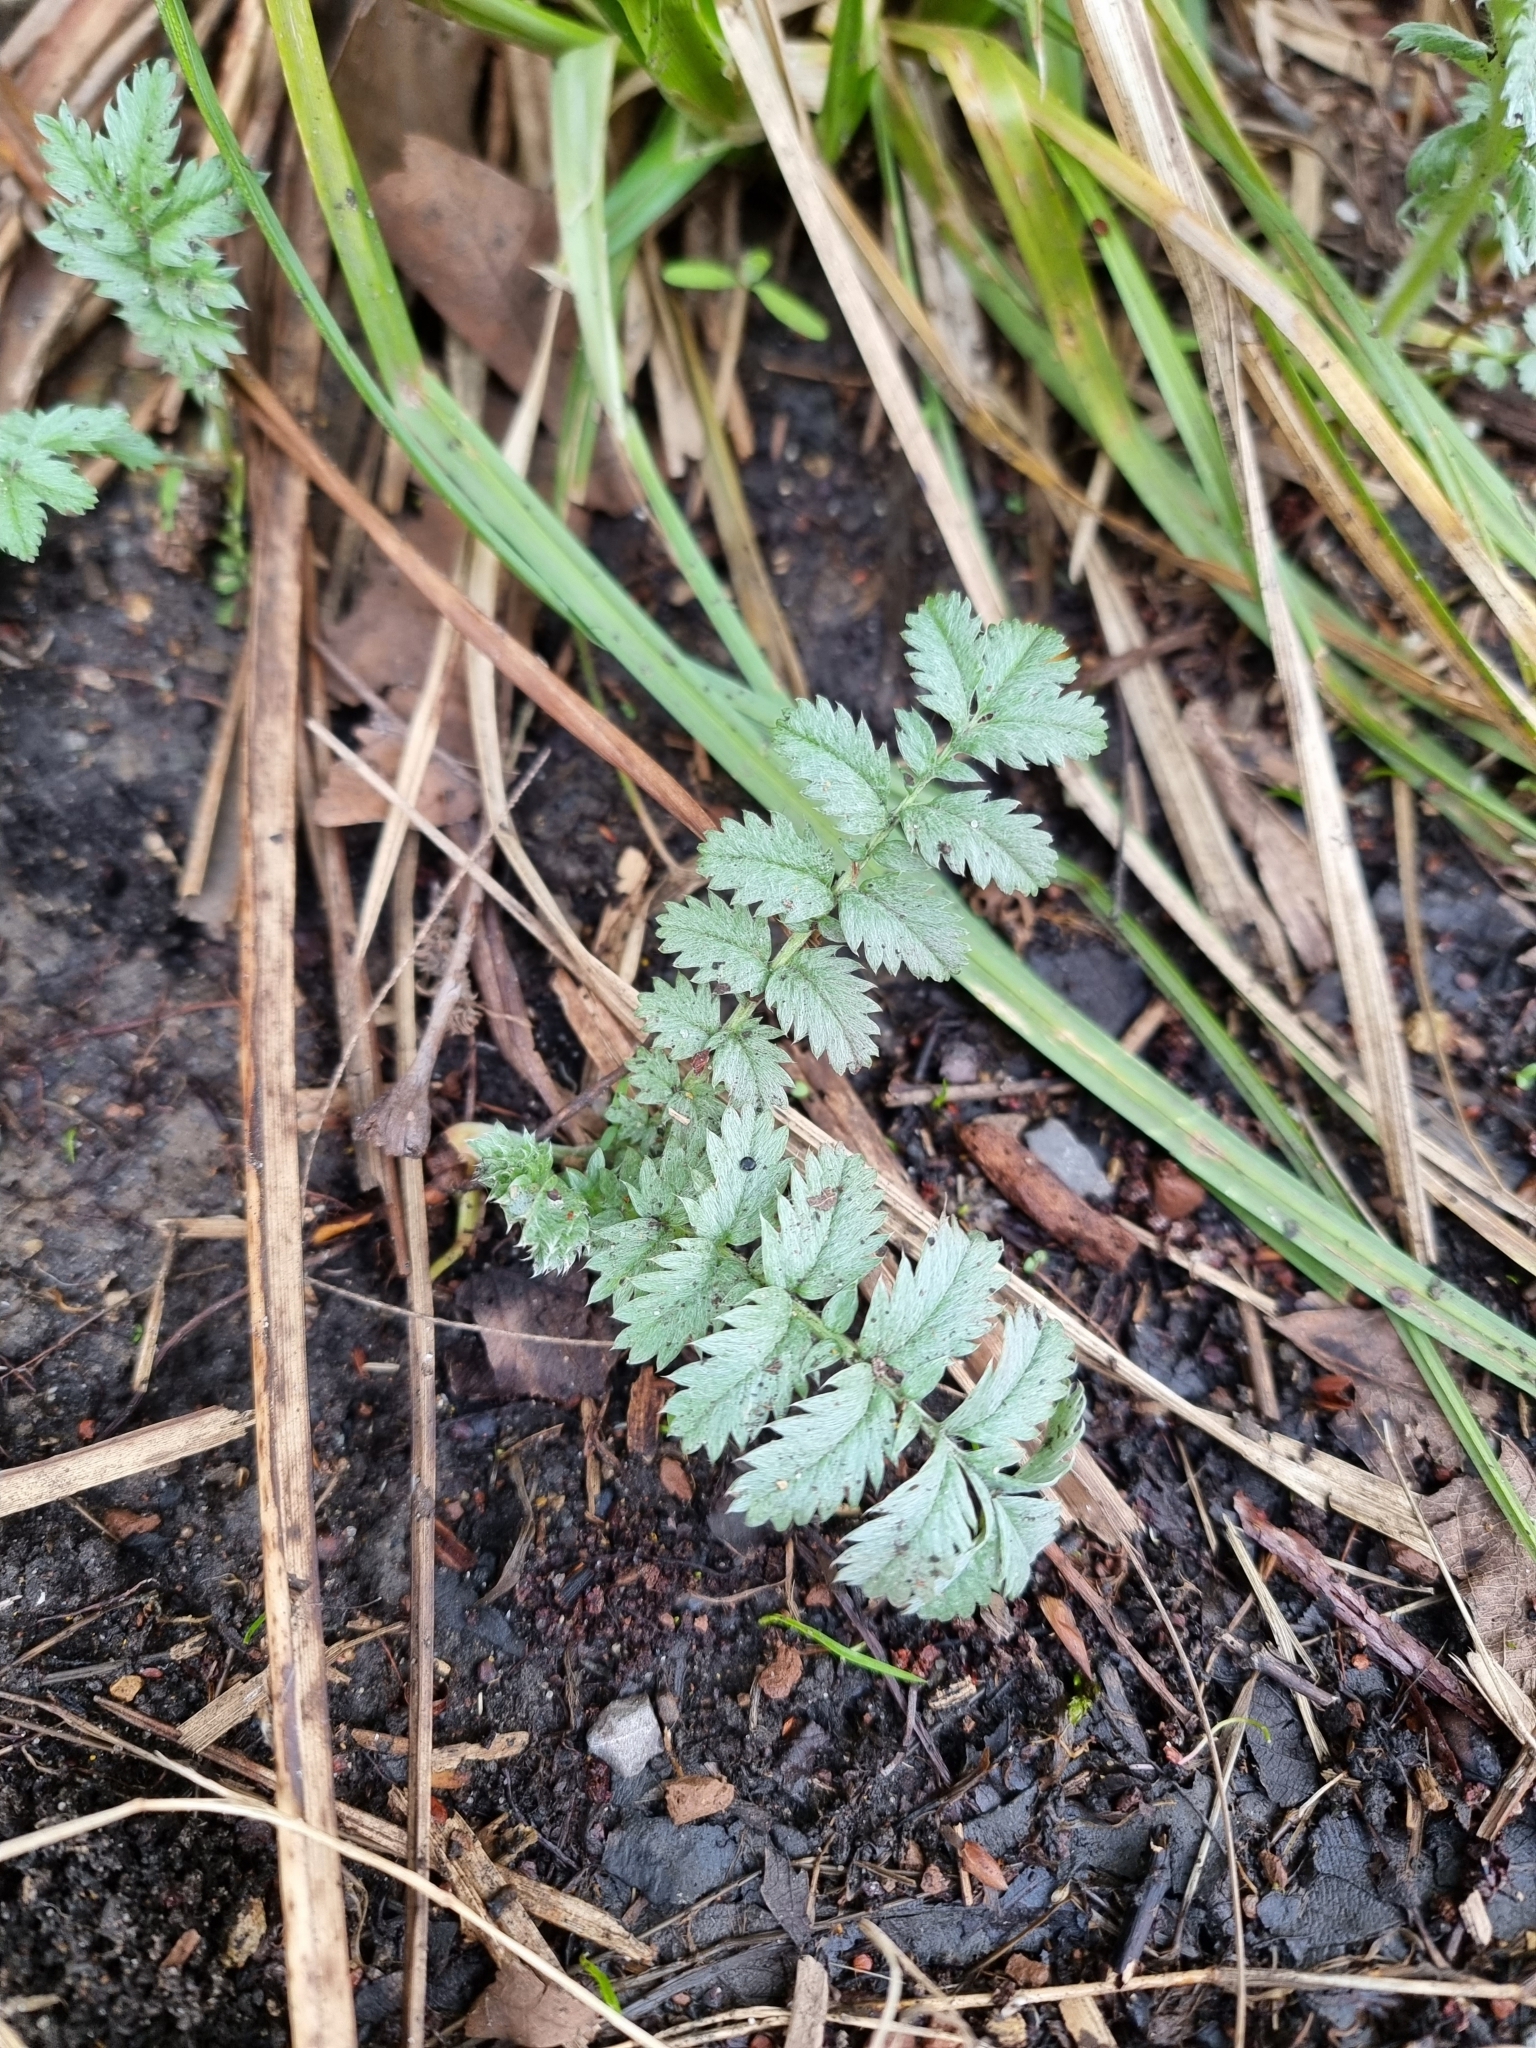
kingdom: Plantae
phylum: Tracheophyta
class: Magnoliopsida
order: Rosales
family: Rosaceae
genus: Argentina
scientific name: Argentina anserina
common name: Common silverweed
